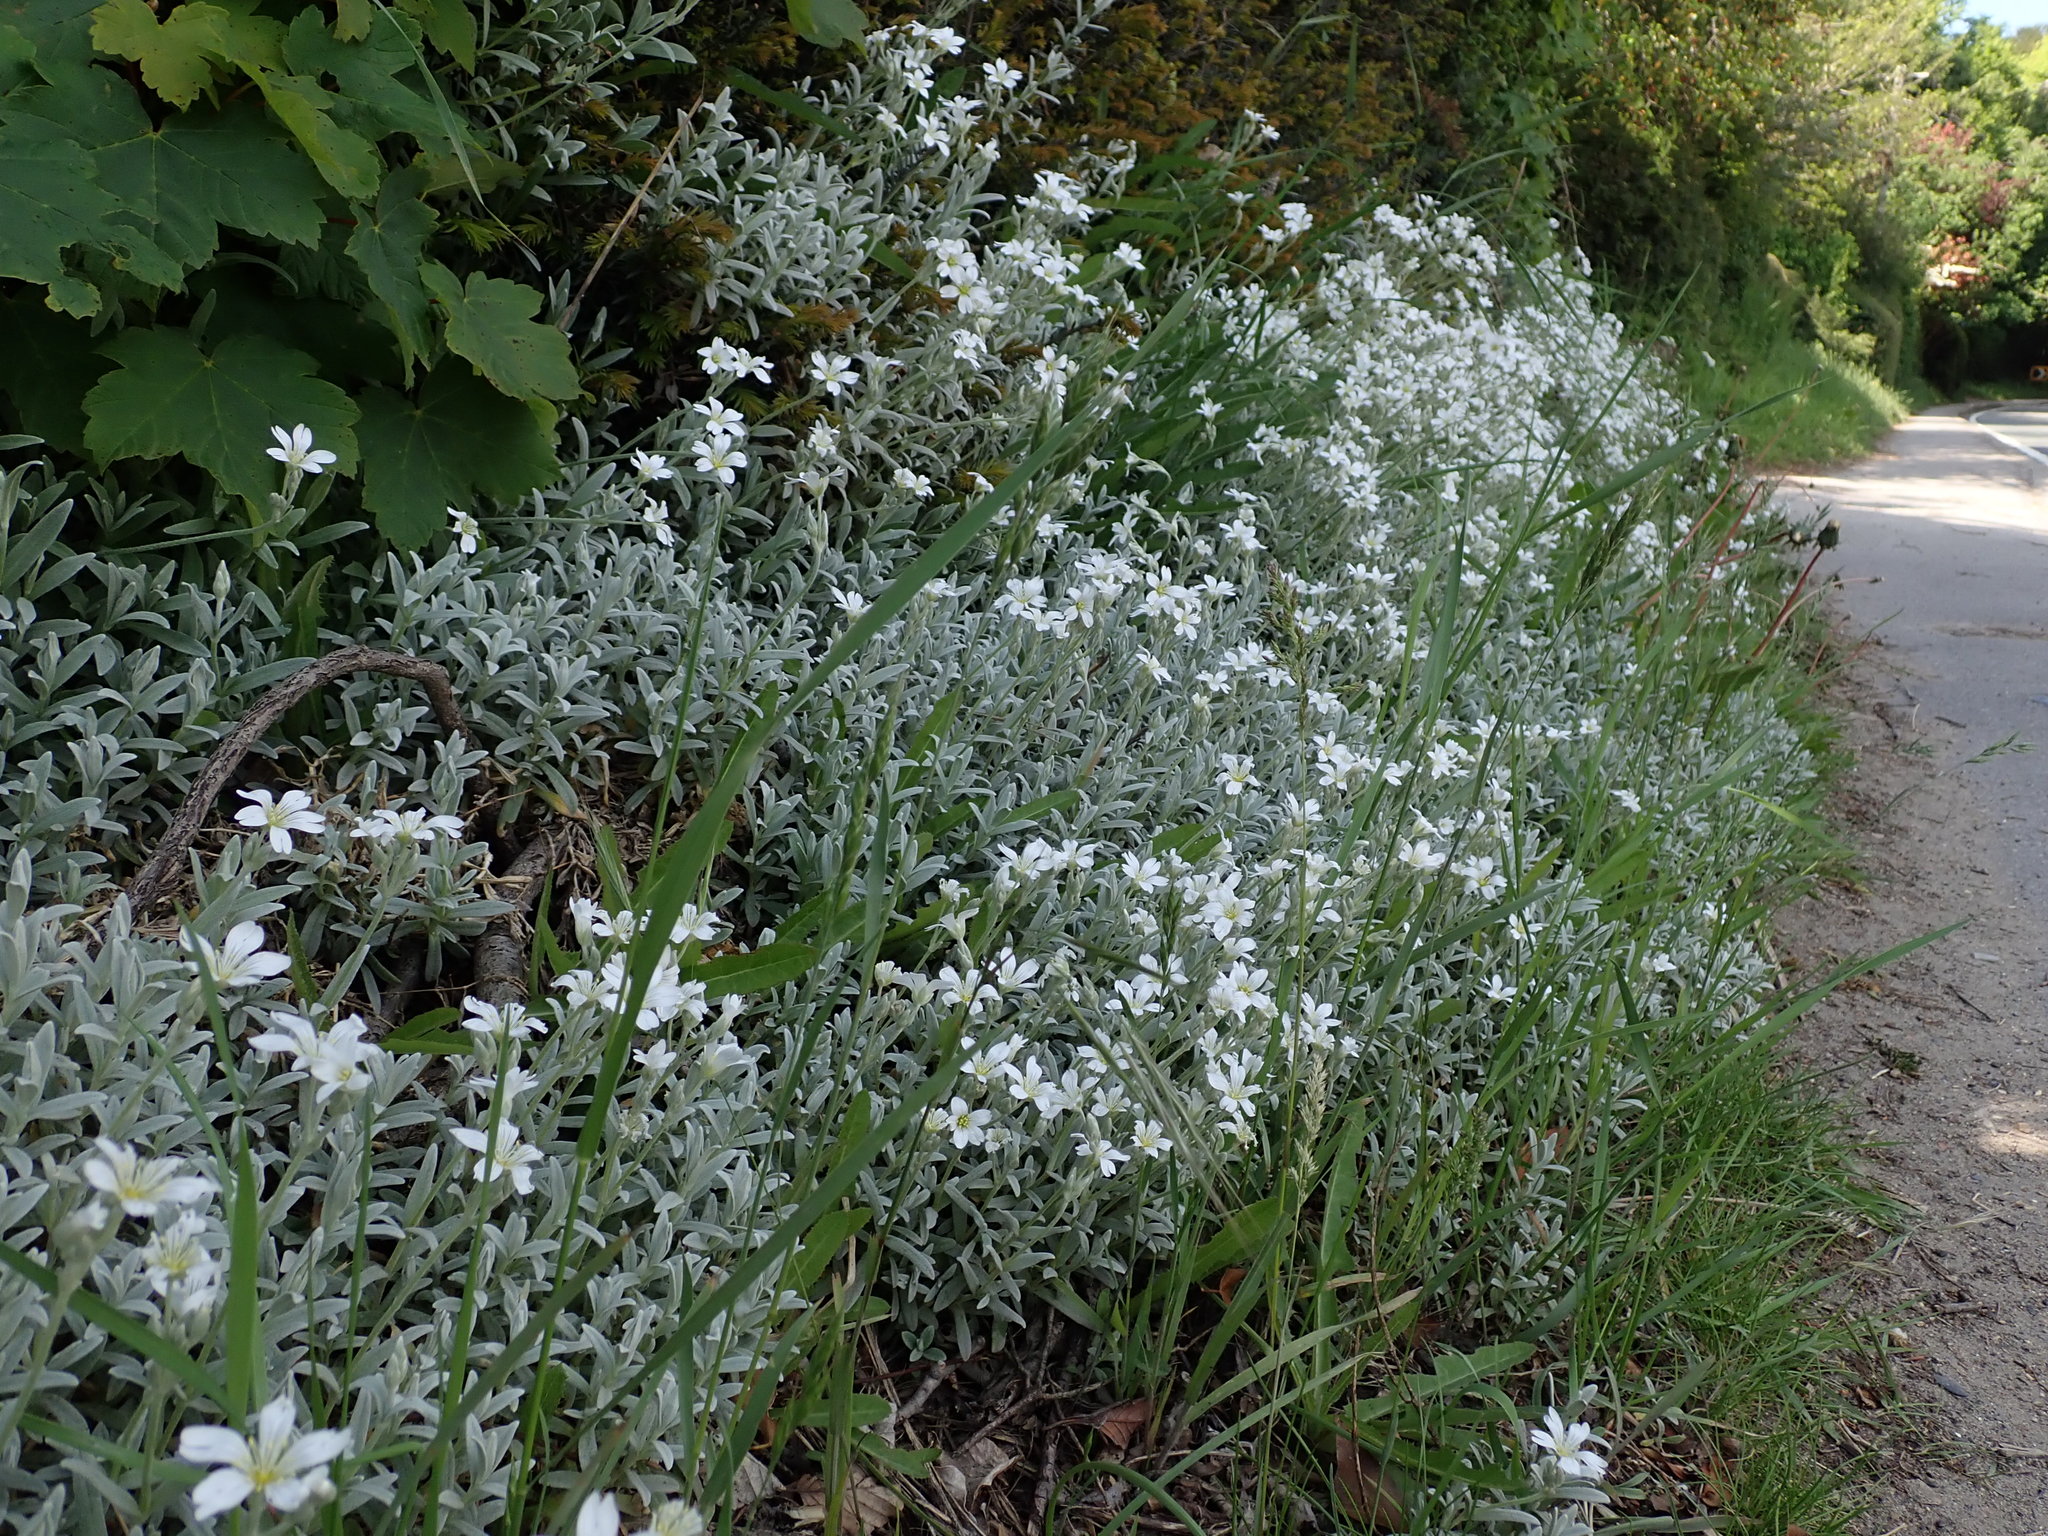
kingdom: Plantae
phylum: Tracheophyta
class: Magnoliopsida
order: Caryophyllales
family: Caryophyllaceae
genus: Cerastium
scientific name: Cerastium tomentosum
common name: Snow-in-summer
